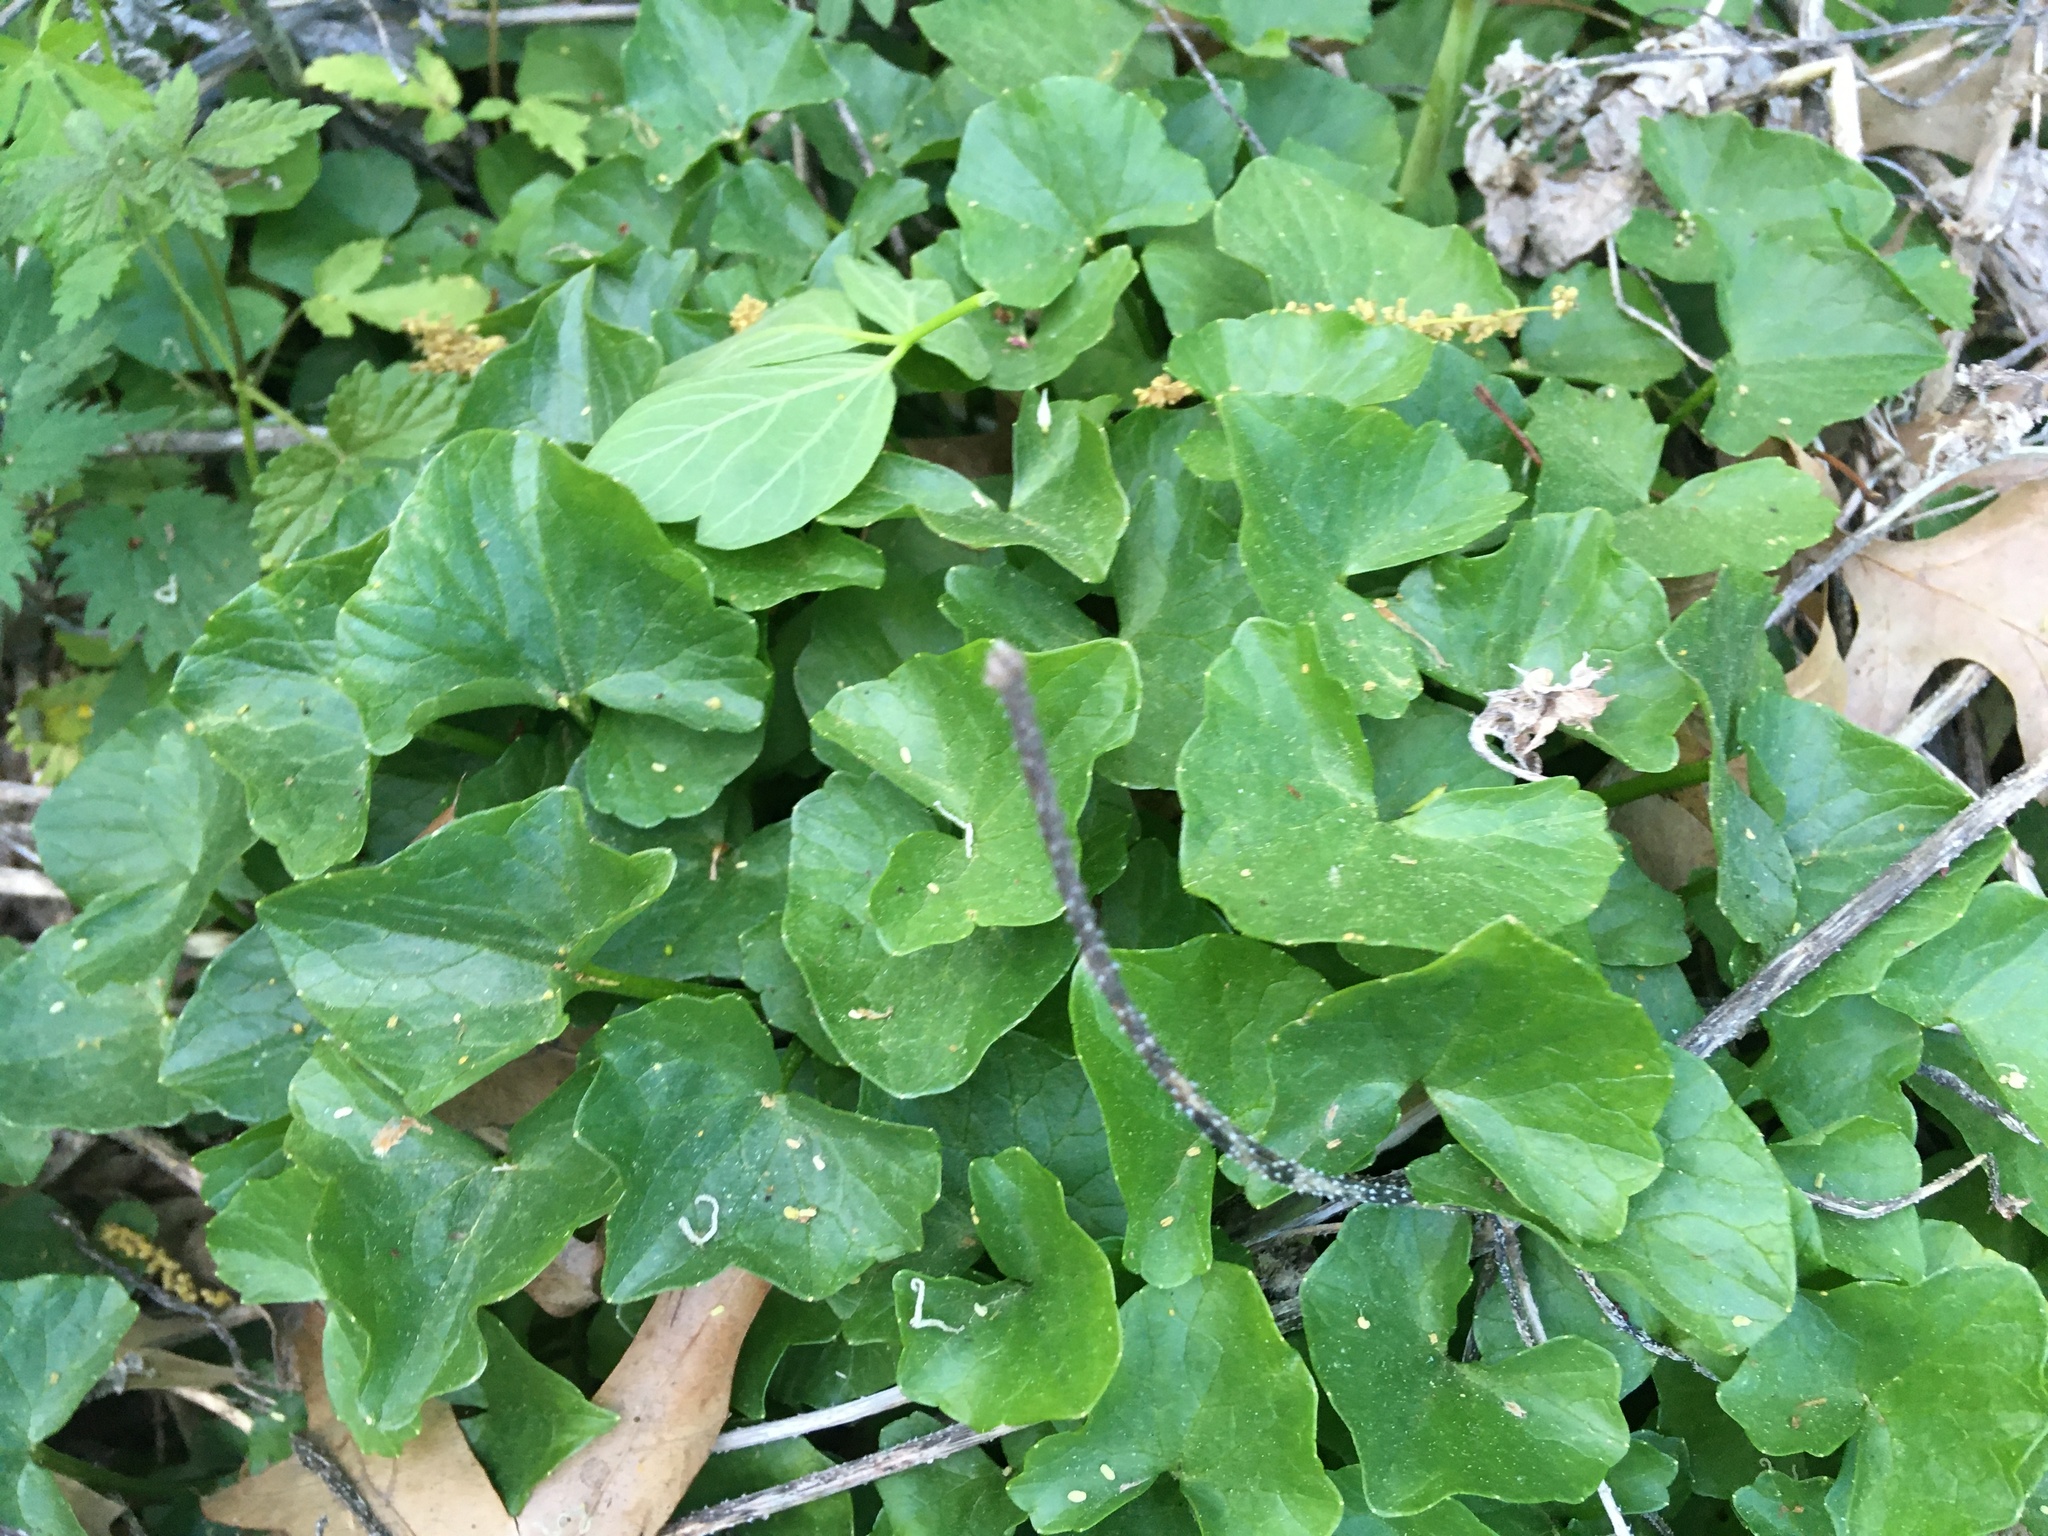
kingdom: Plantae
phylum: Tracheophyta
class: Magnoliopsida
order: Ranunculales
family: Ranunculaceae
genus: Ficaria
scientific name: Ficaria verna
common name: Lesser celandine
